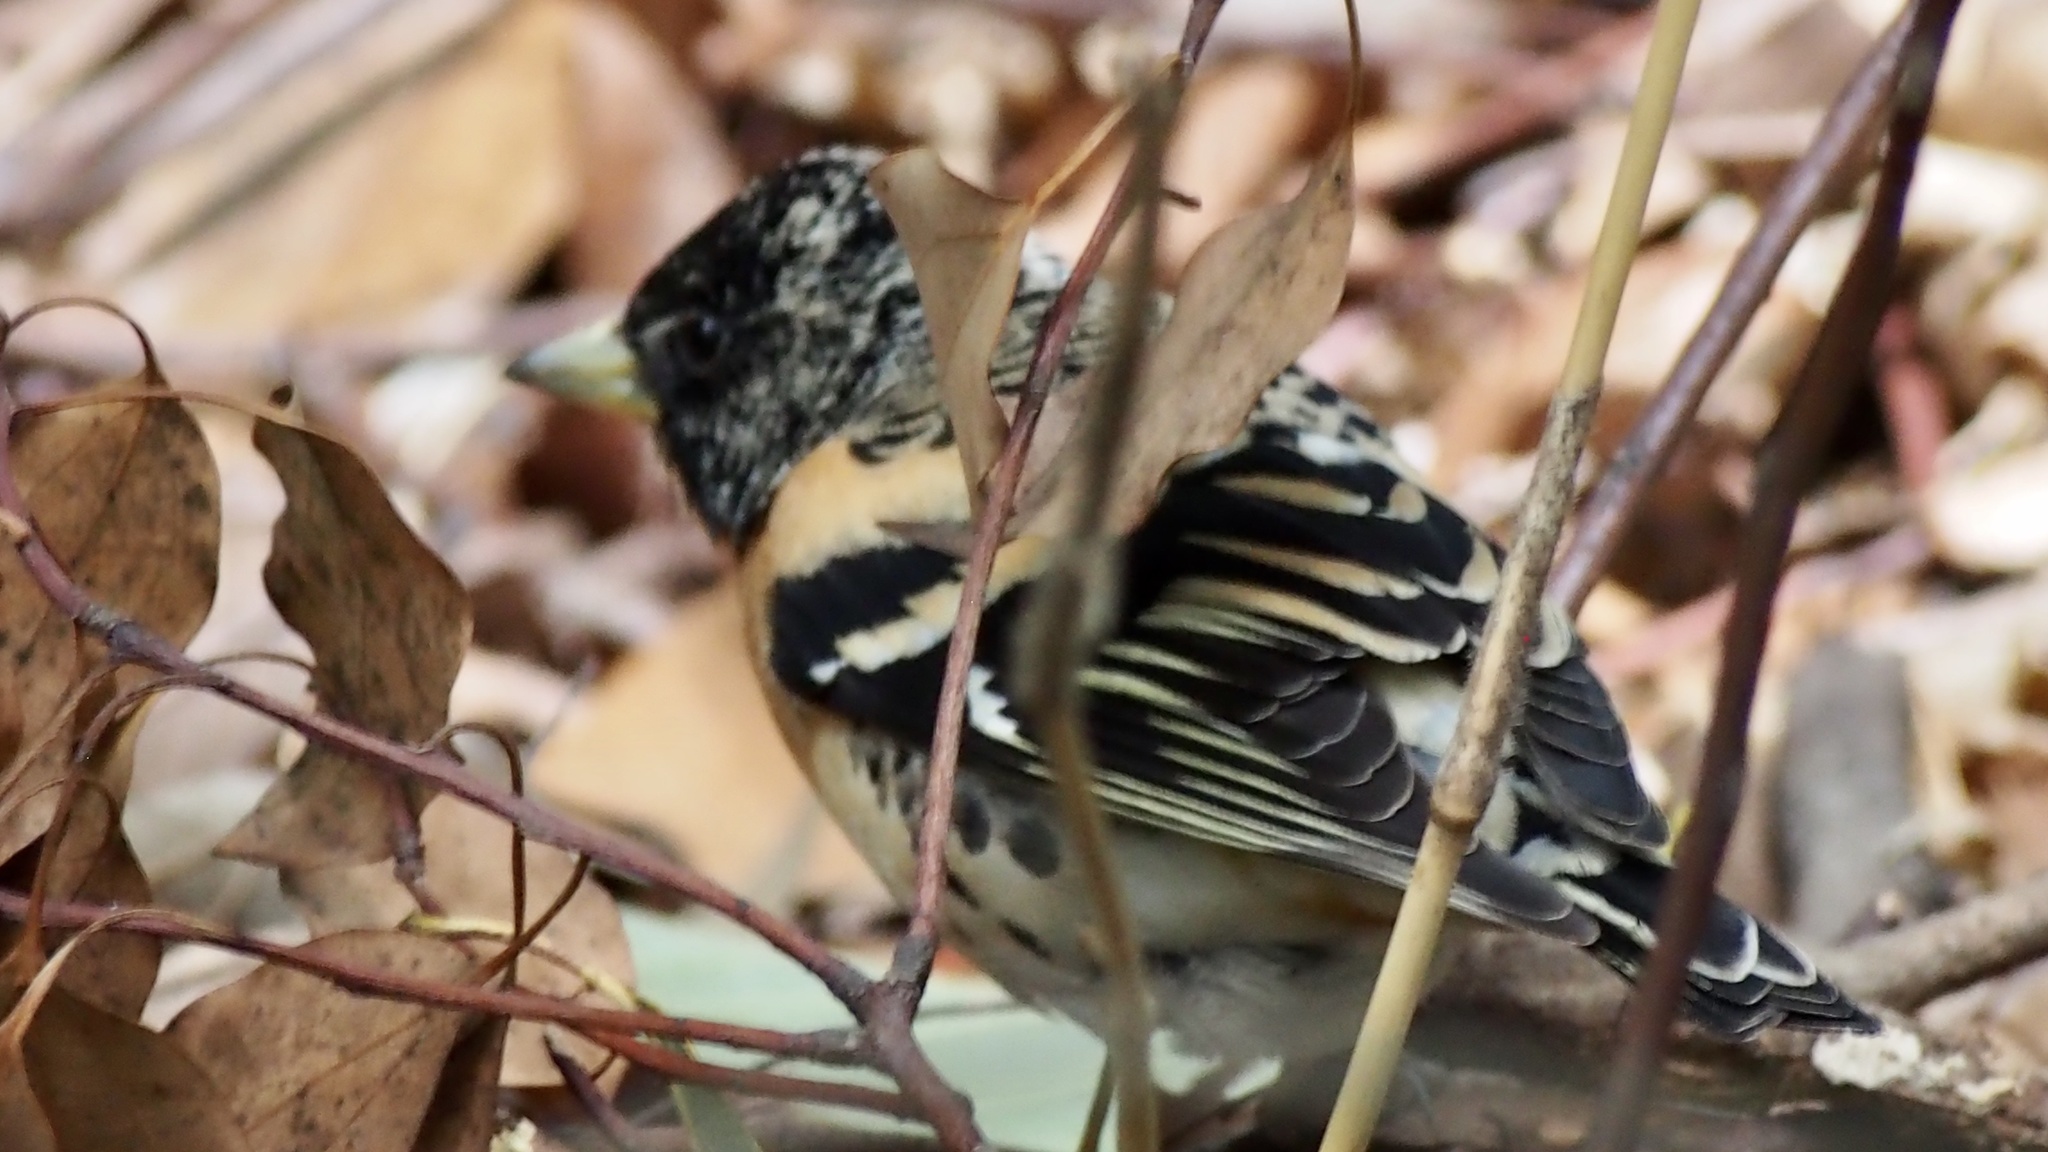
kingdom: Animalia
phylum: Chordata
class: Aves
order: Passeriformes
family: Fringillidae
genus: Fringilla
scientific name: Fringilla montifringilla
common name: Brambling
